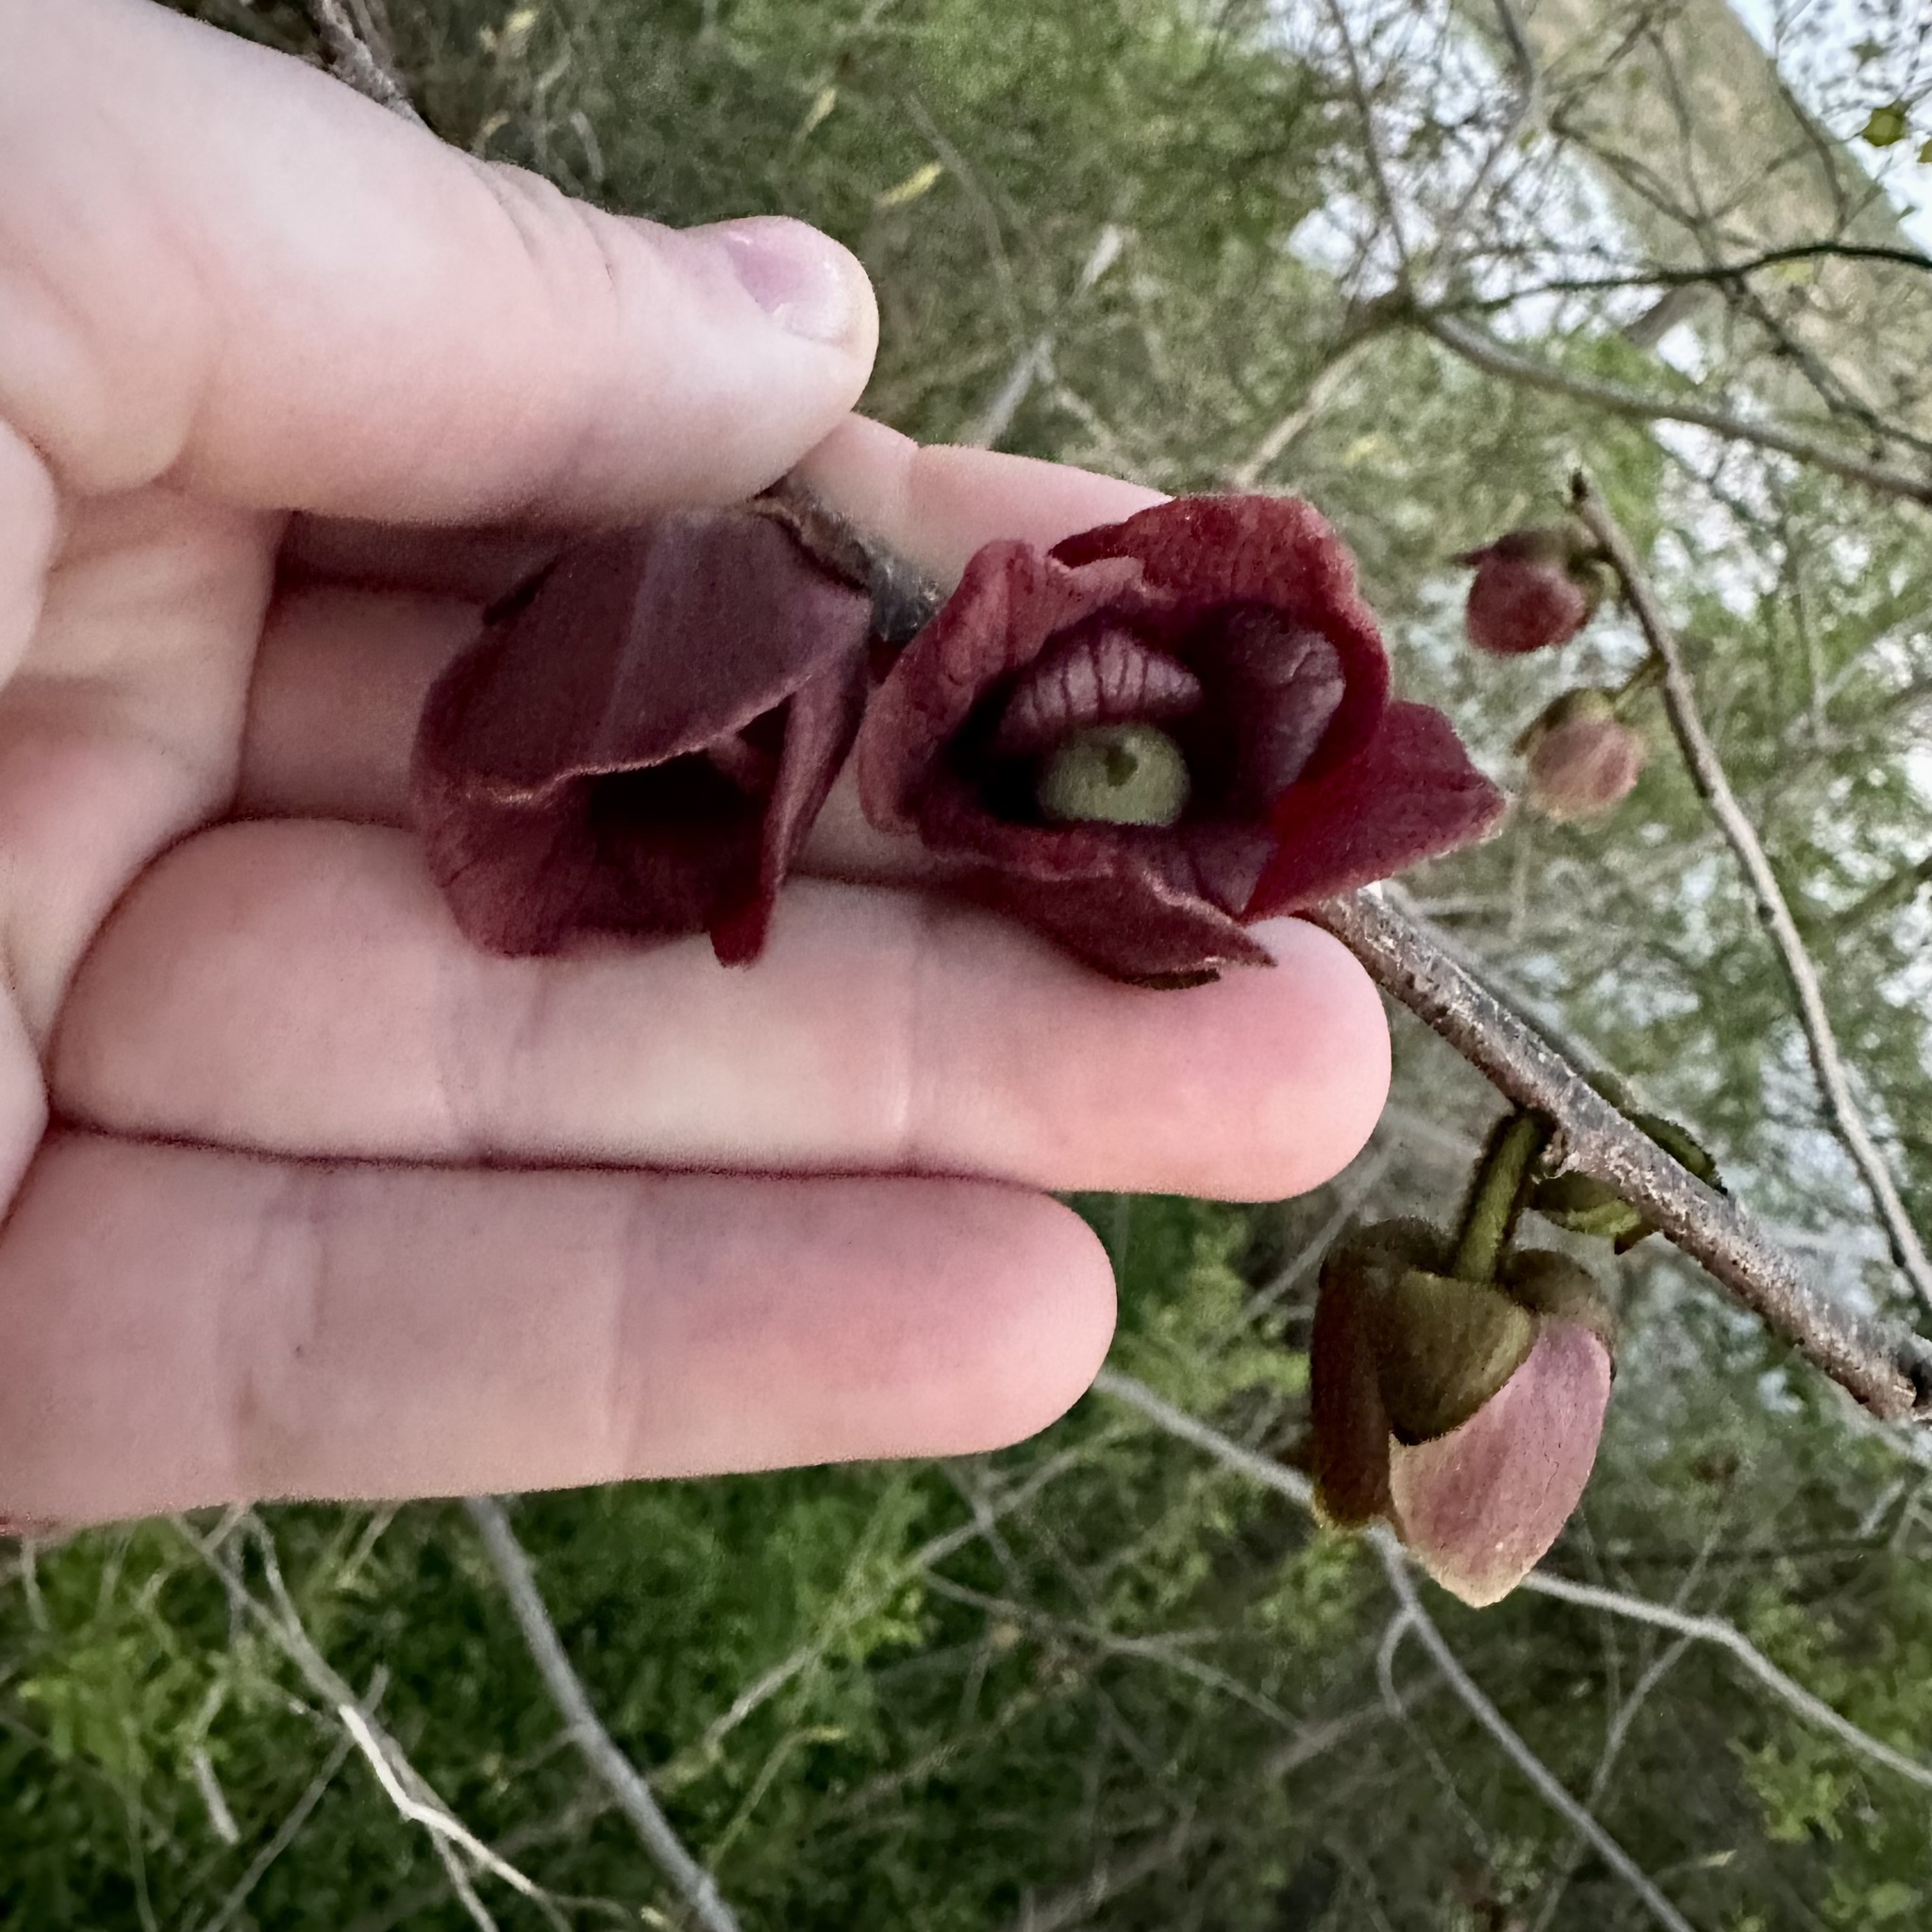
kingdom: Plantae
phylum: Tracheophyta
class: Magnoliopsida
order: Magnoliales
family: Annonaceae
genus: Asimina
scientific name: Asimina triloba
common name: Dog-banana
